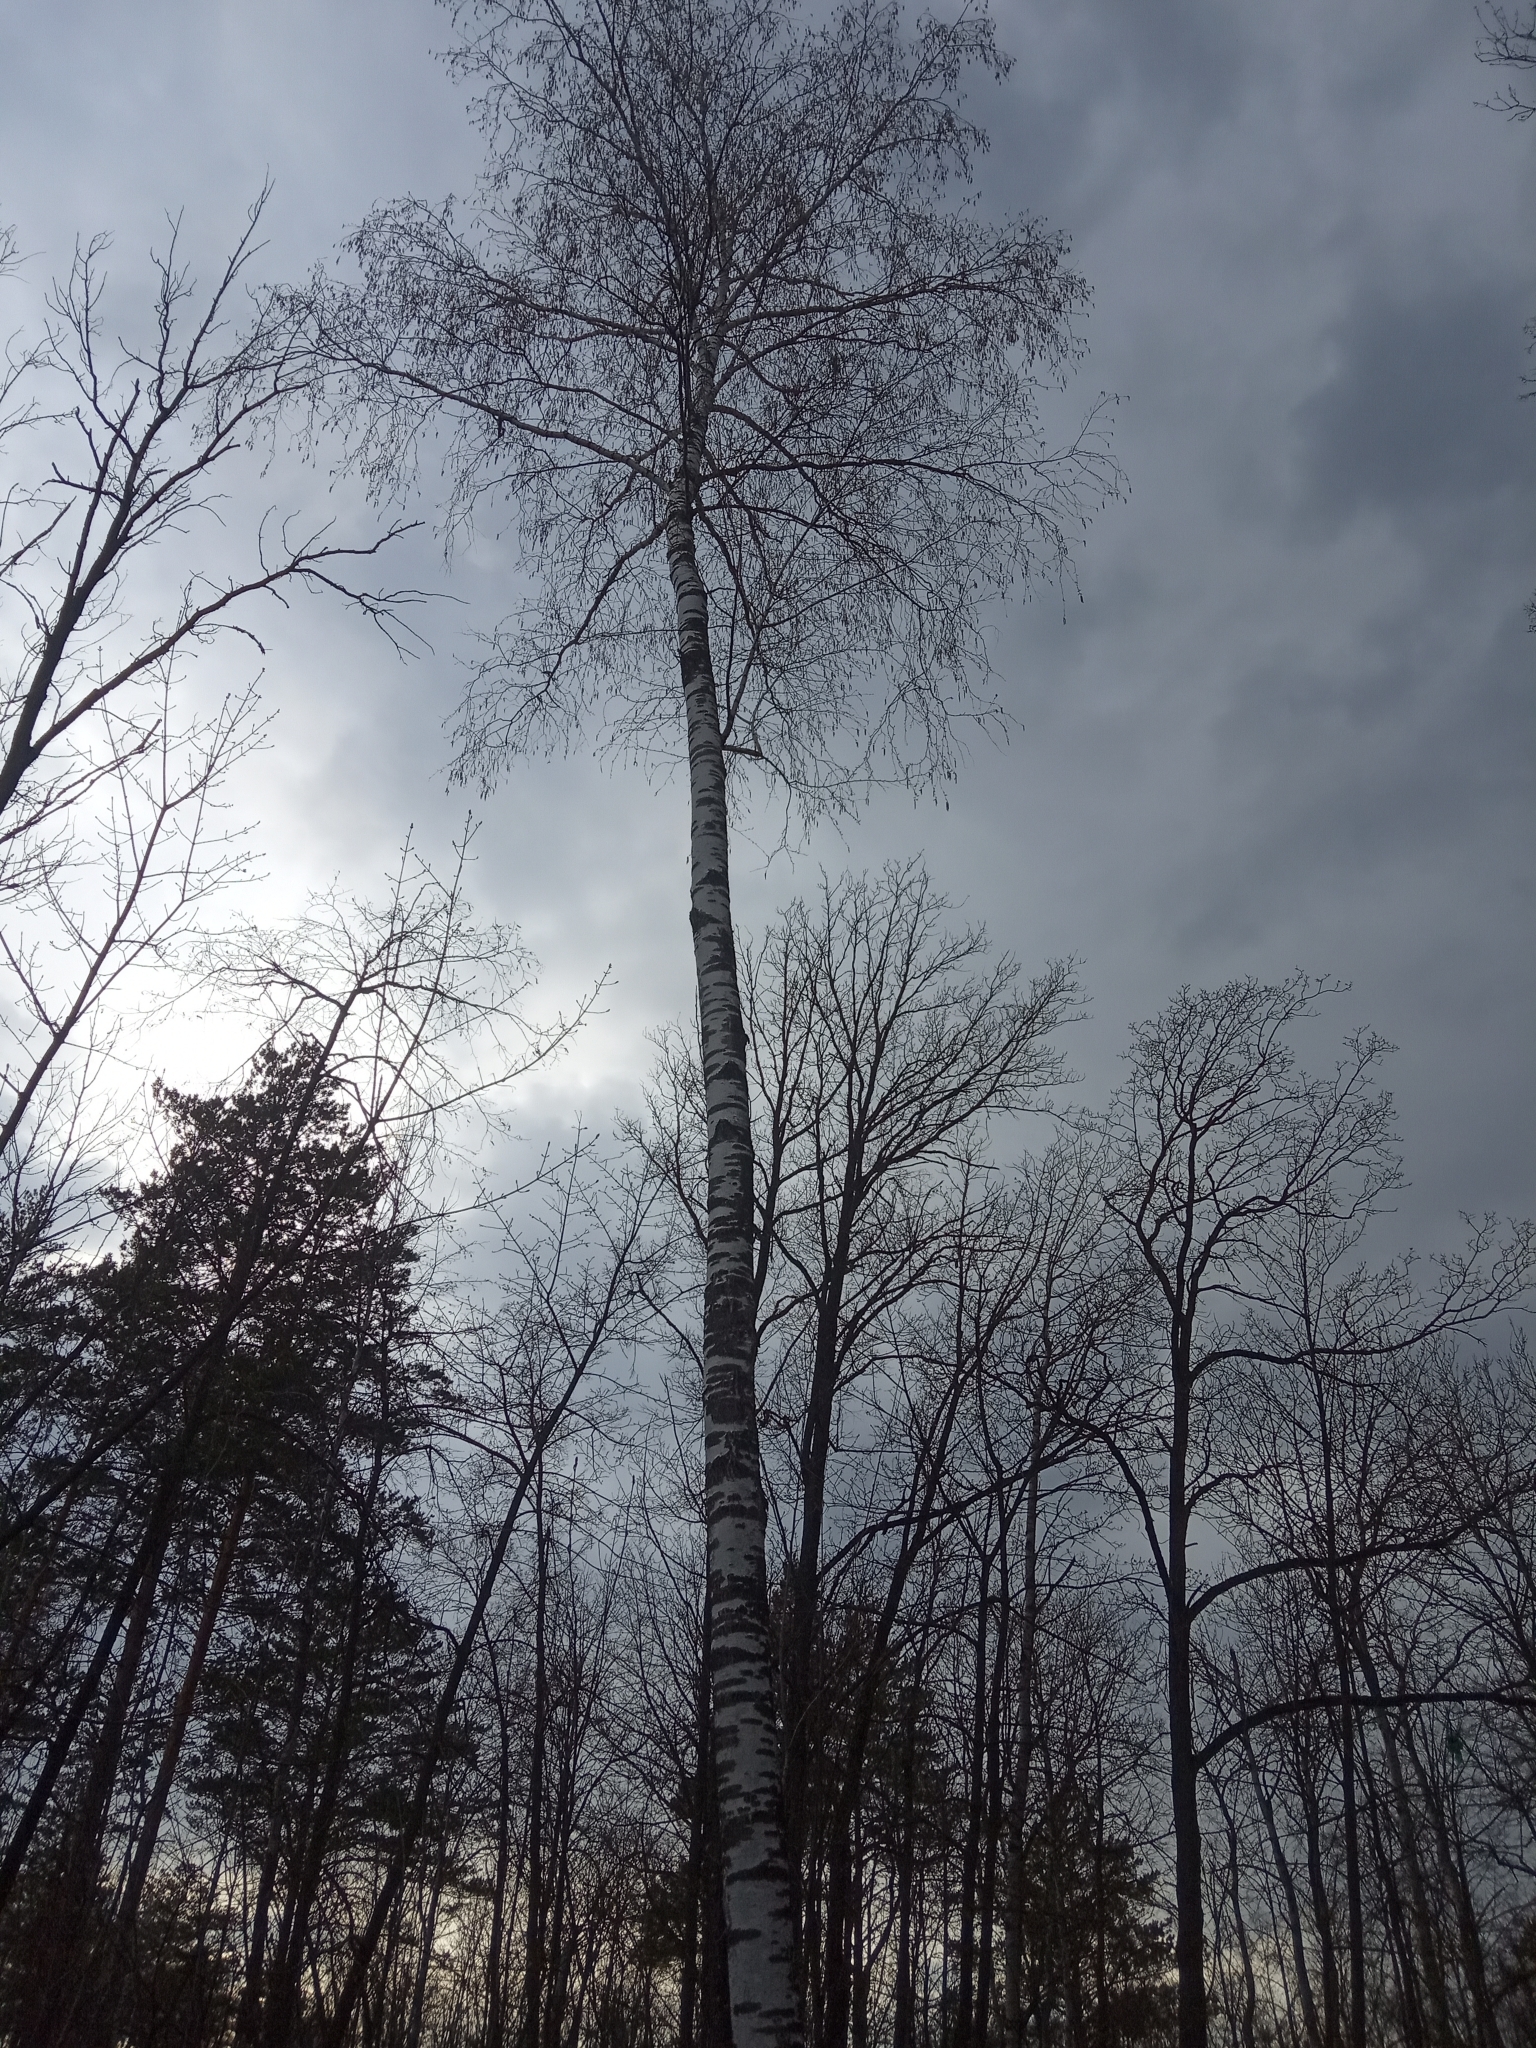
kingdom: Plantae
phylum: Tracheophyta
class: Magnoliopsida
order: Fagales
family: Betulaceae
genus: Betula
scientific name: Betula pendula
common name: Silver birch
